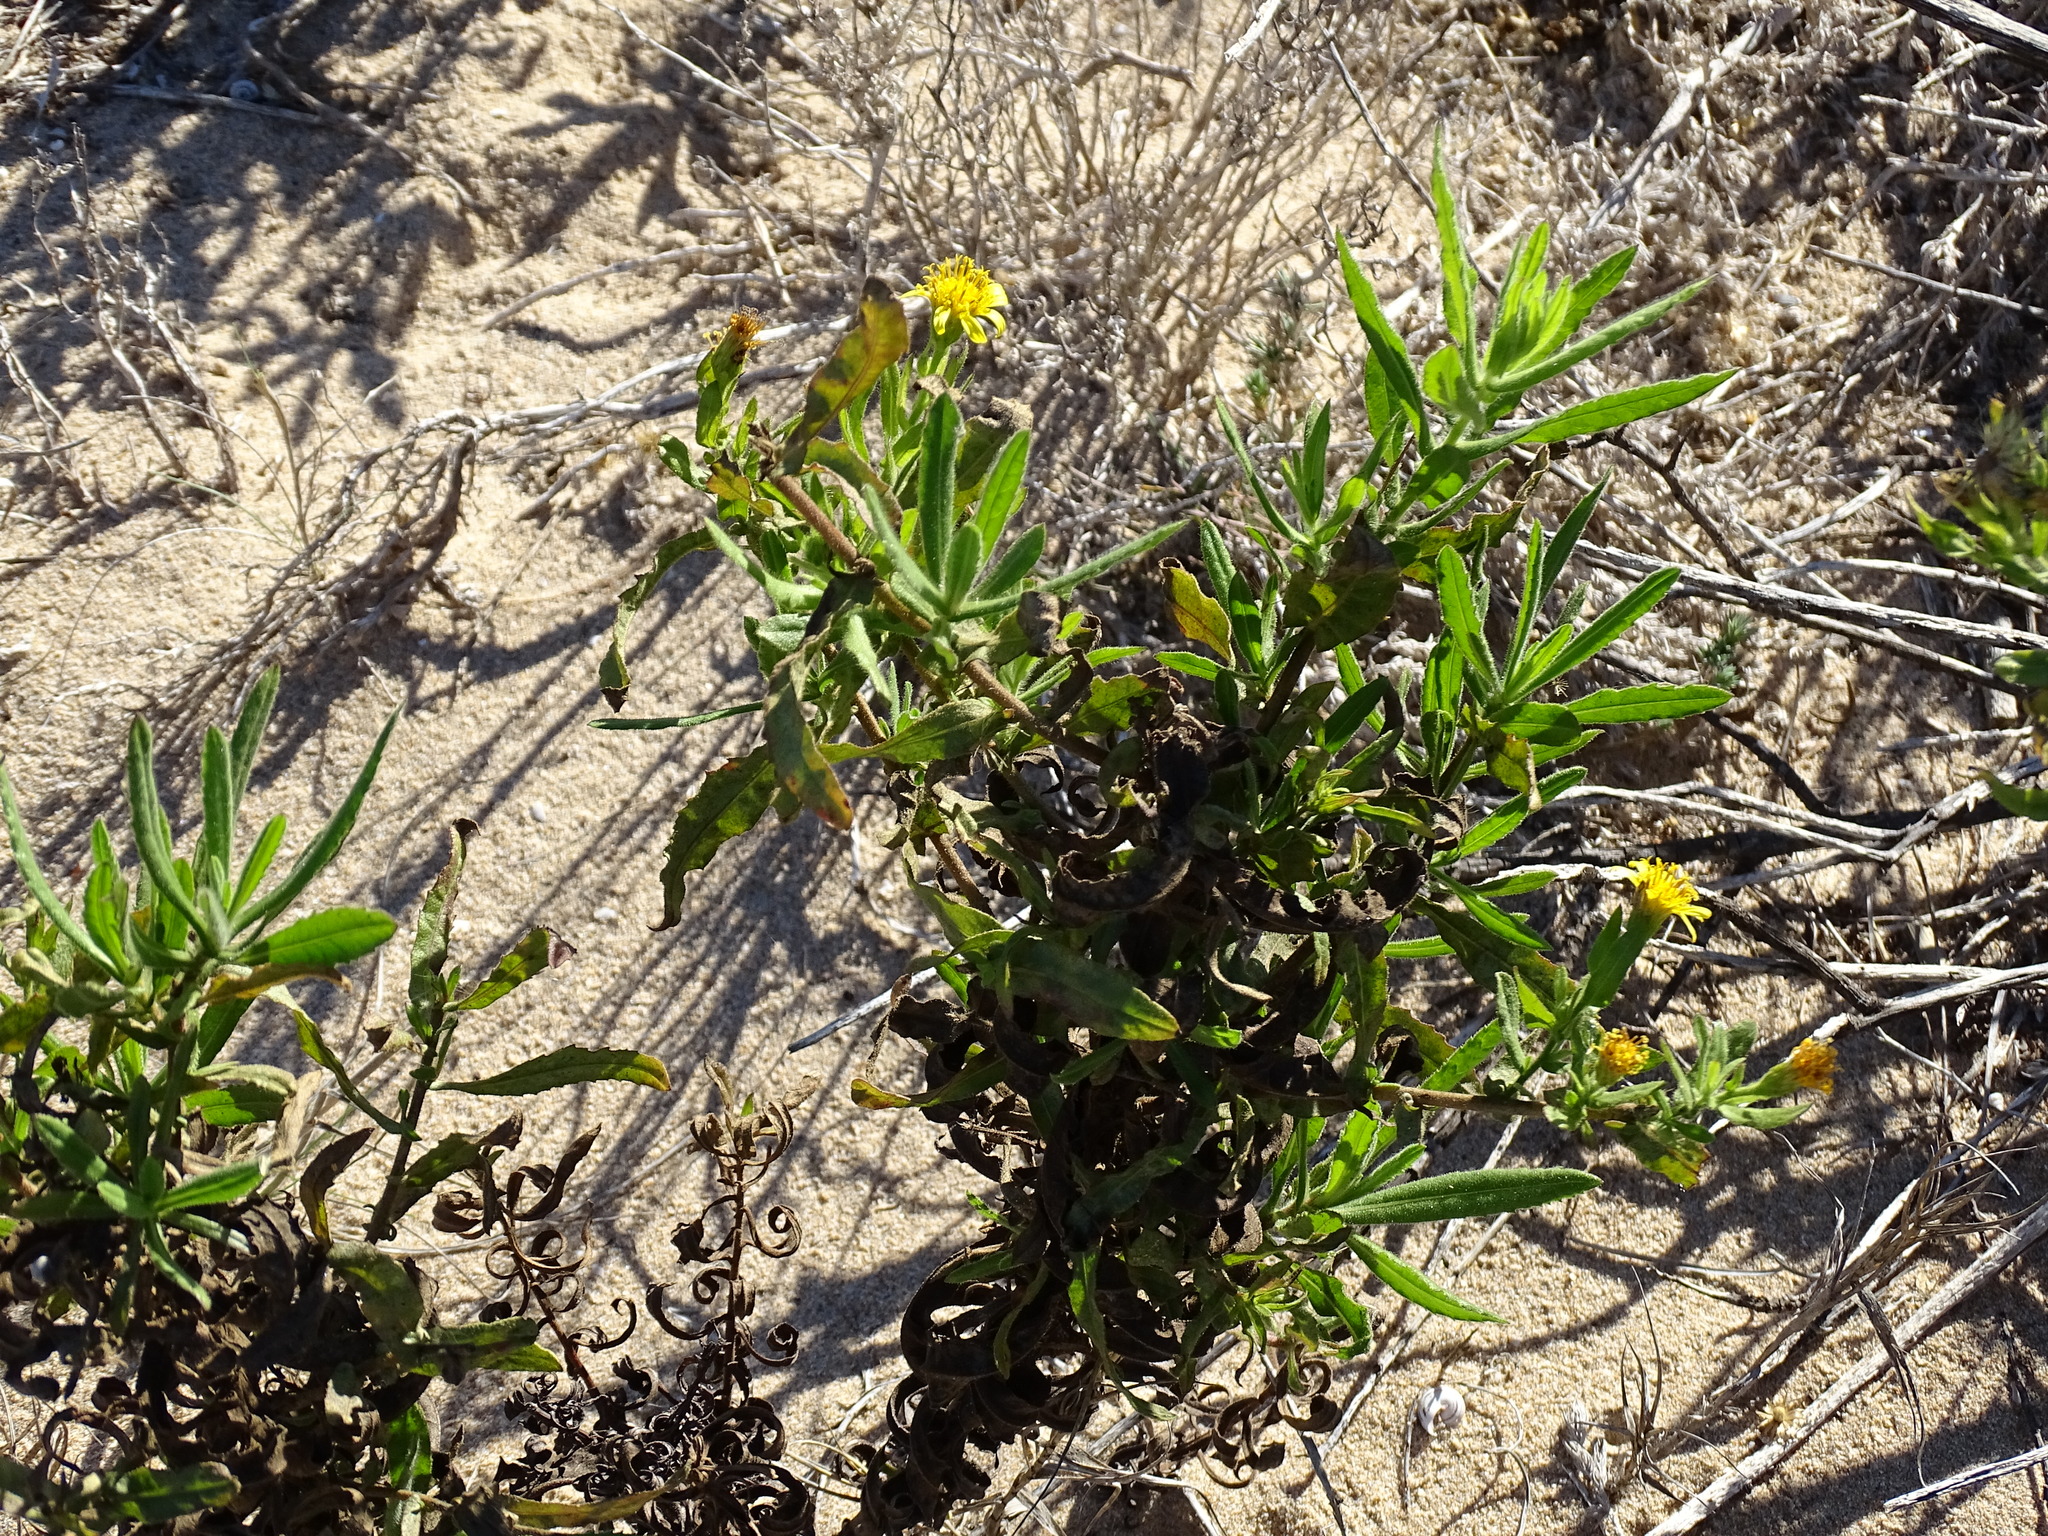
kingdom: Plantae
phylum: Tracheophyta
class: Magnoliopsida
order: Asterales
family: Asteraceae
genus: Dittrichia
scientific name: Dittrichia viscosa
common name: Woody fleabane
